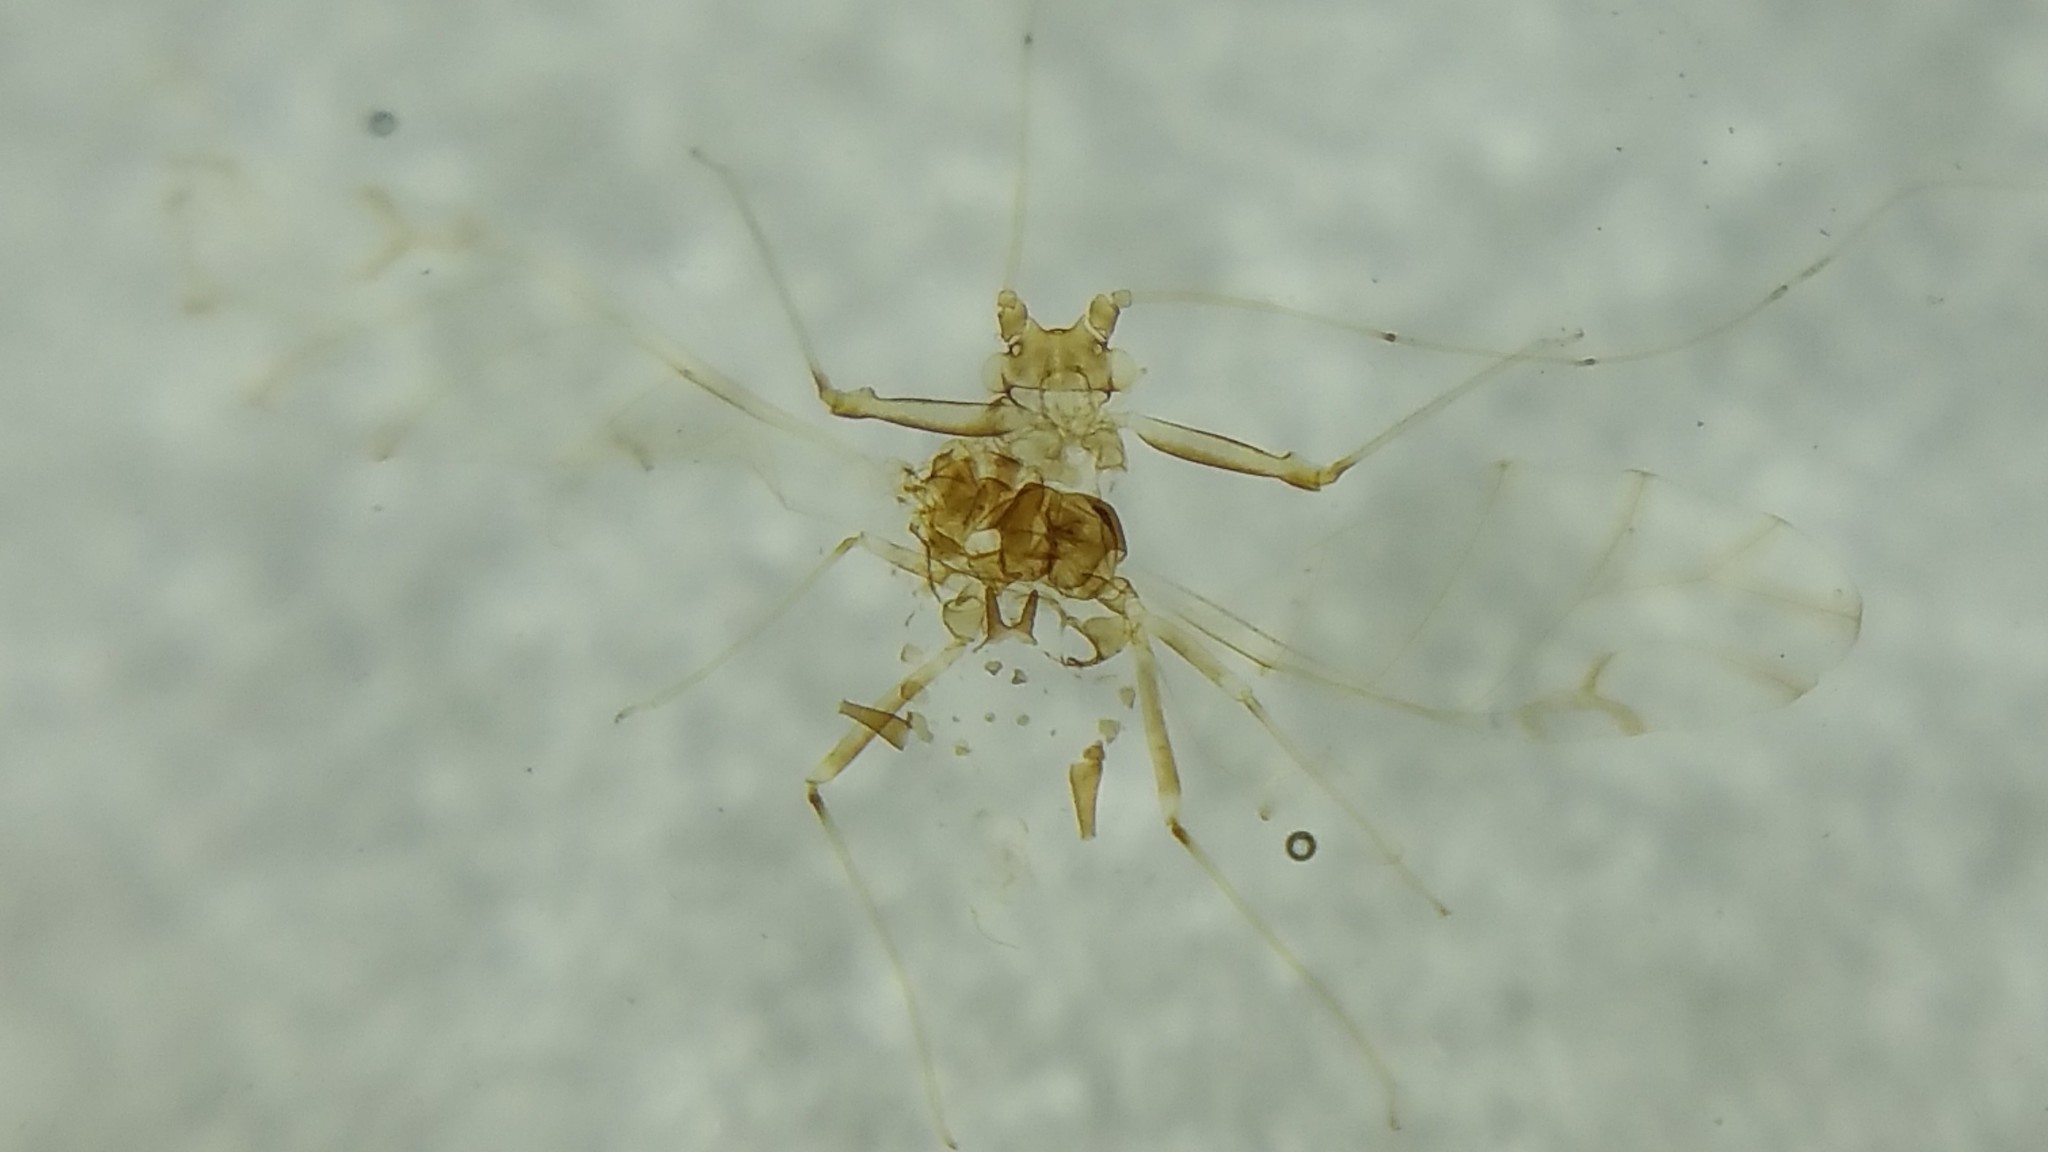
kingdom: Animalia
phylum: Arthropoda
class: Insecta
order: Hemiptera
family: Aphididae
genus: Drepanaphis
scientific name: Drepanaphis acerifoliae
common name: Painted maple aphid
